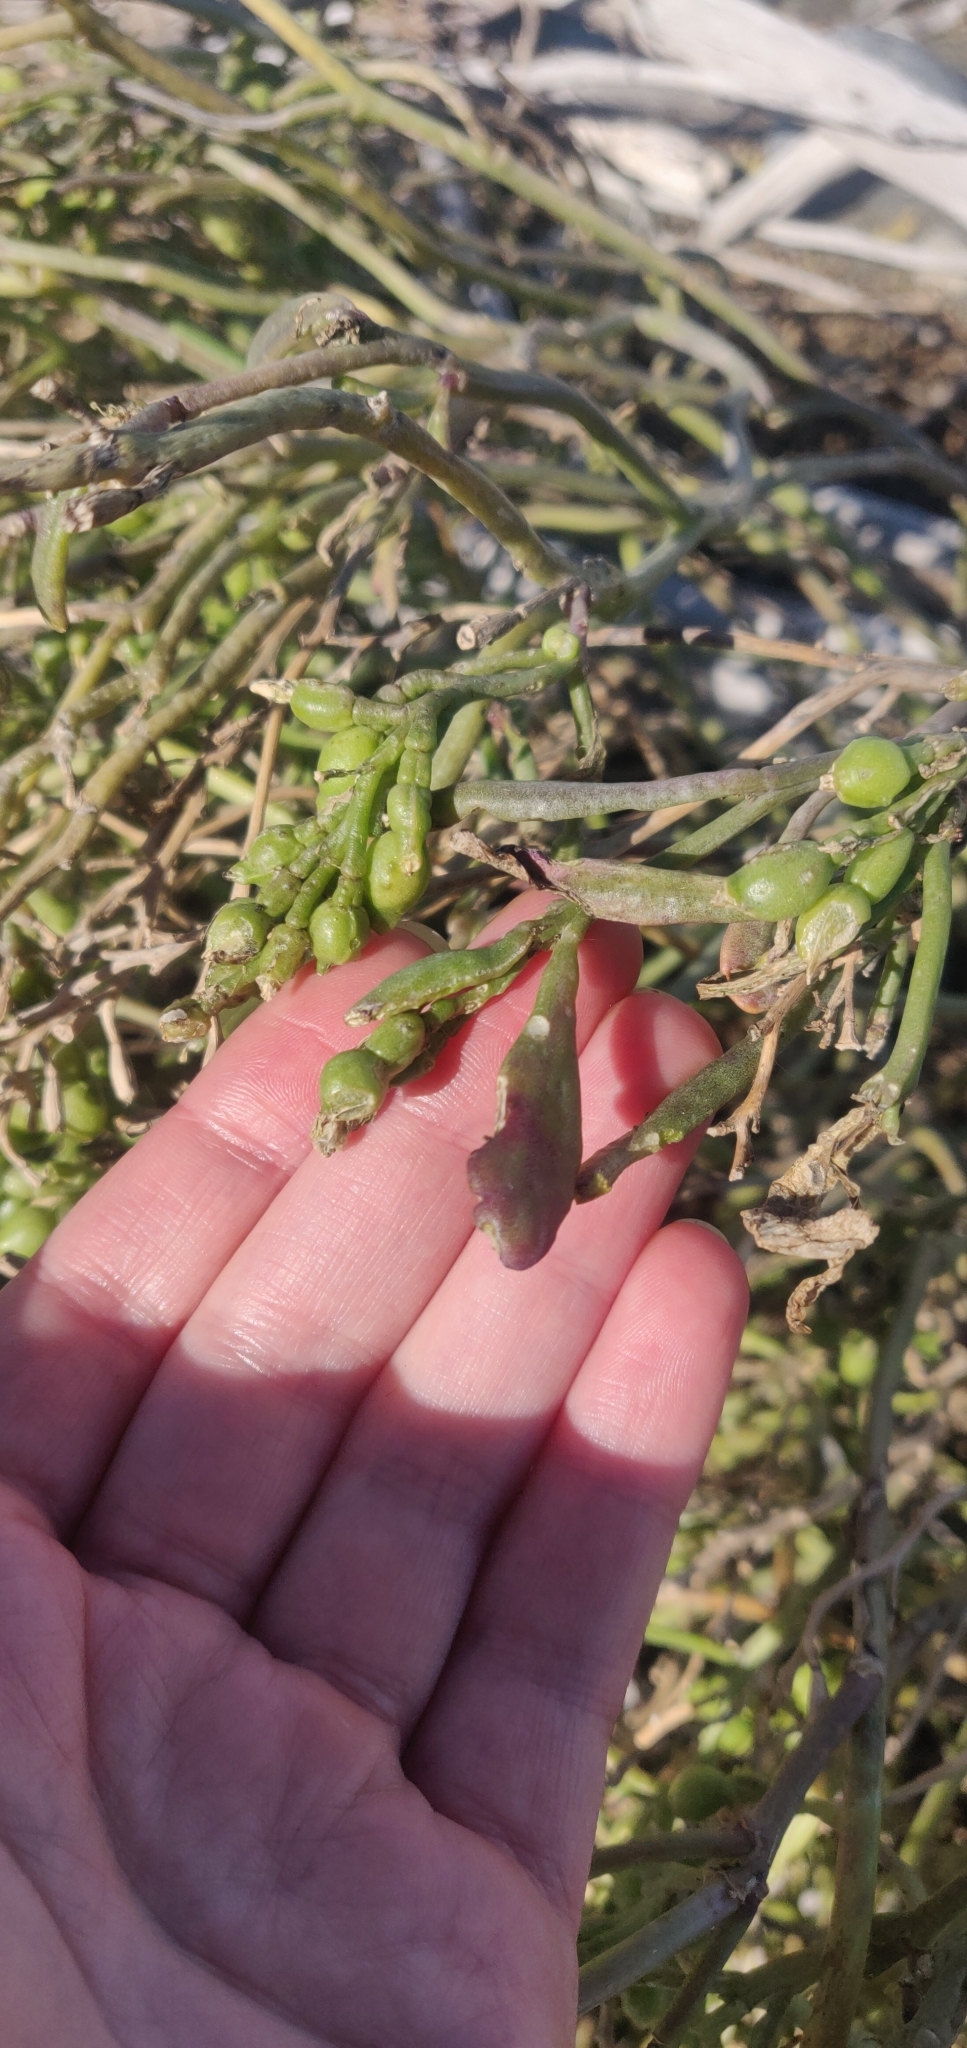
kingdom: Plantae
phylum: Tracheophyta
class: Magnoliopsida
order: Brassicales
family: Brassicaceae
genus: Cakile
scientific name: Cakile edentula
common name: American sea rocket
